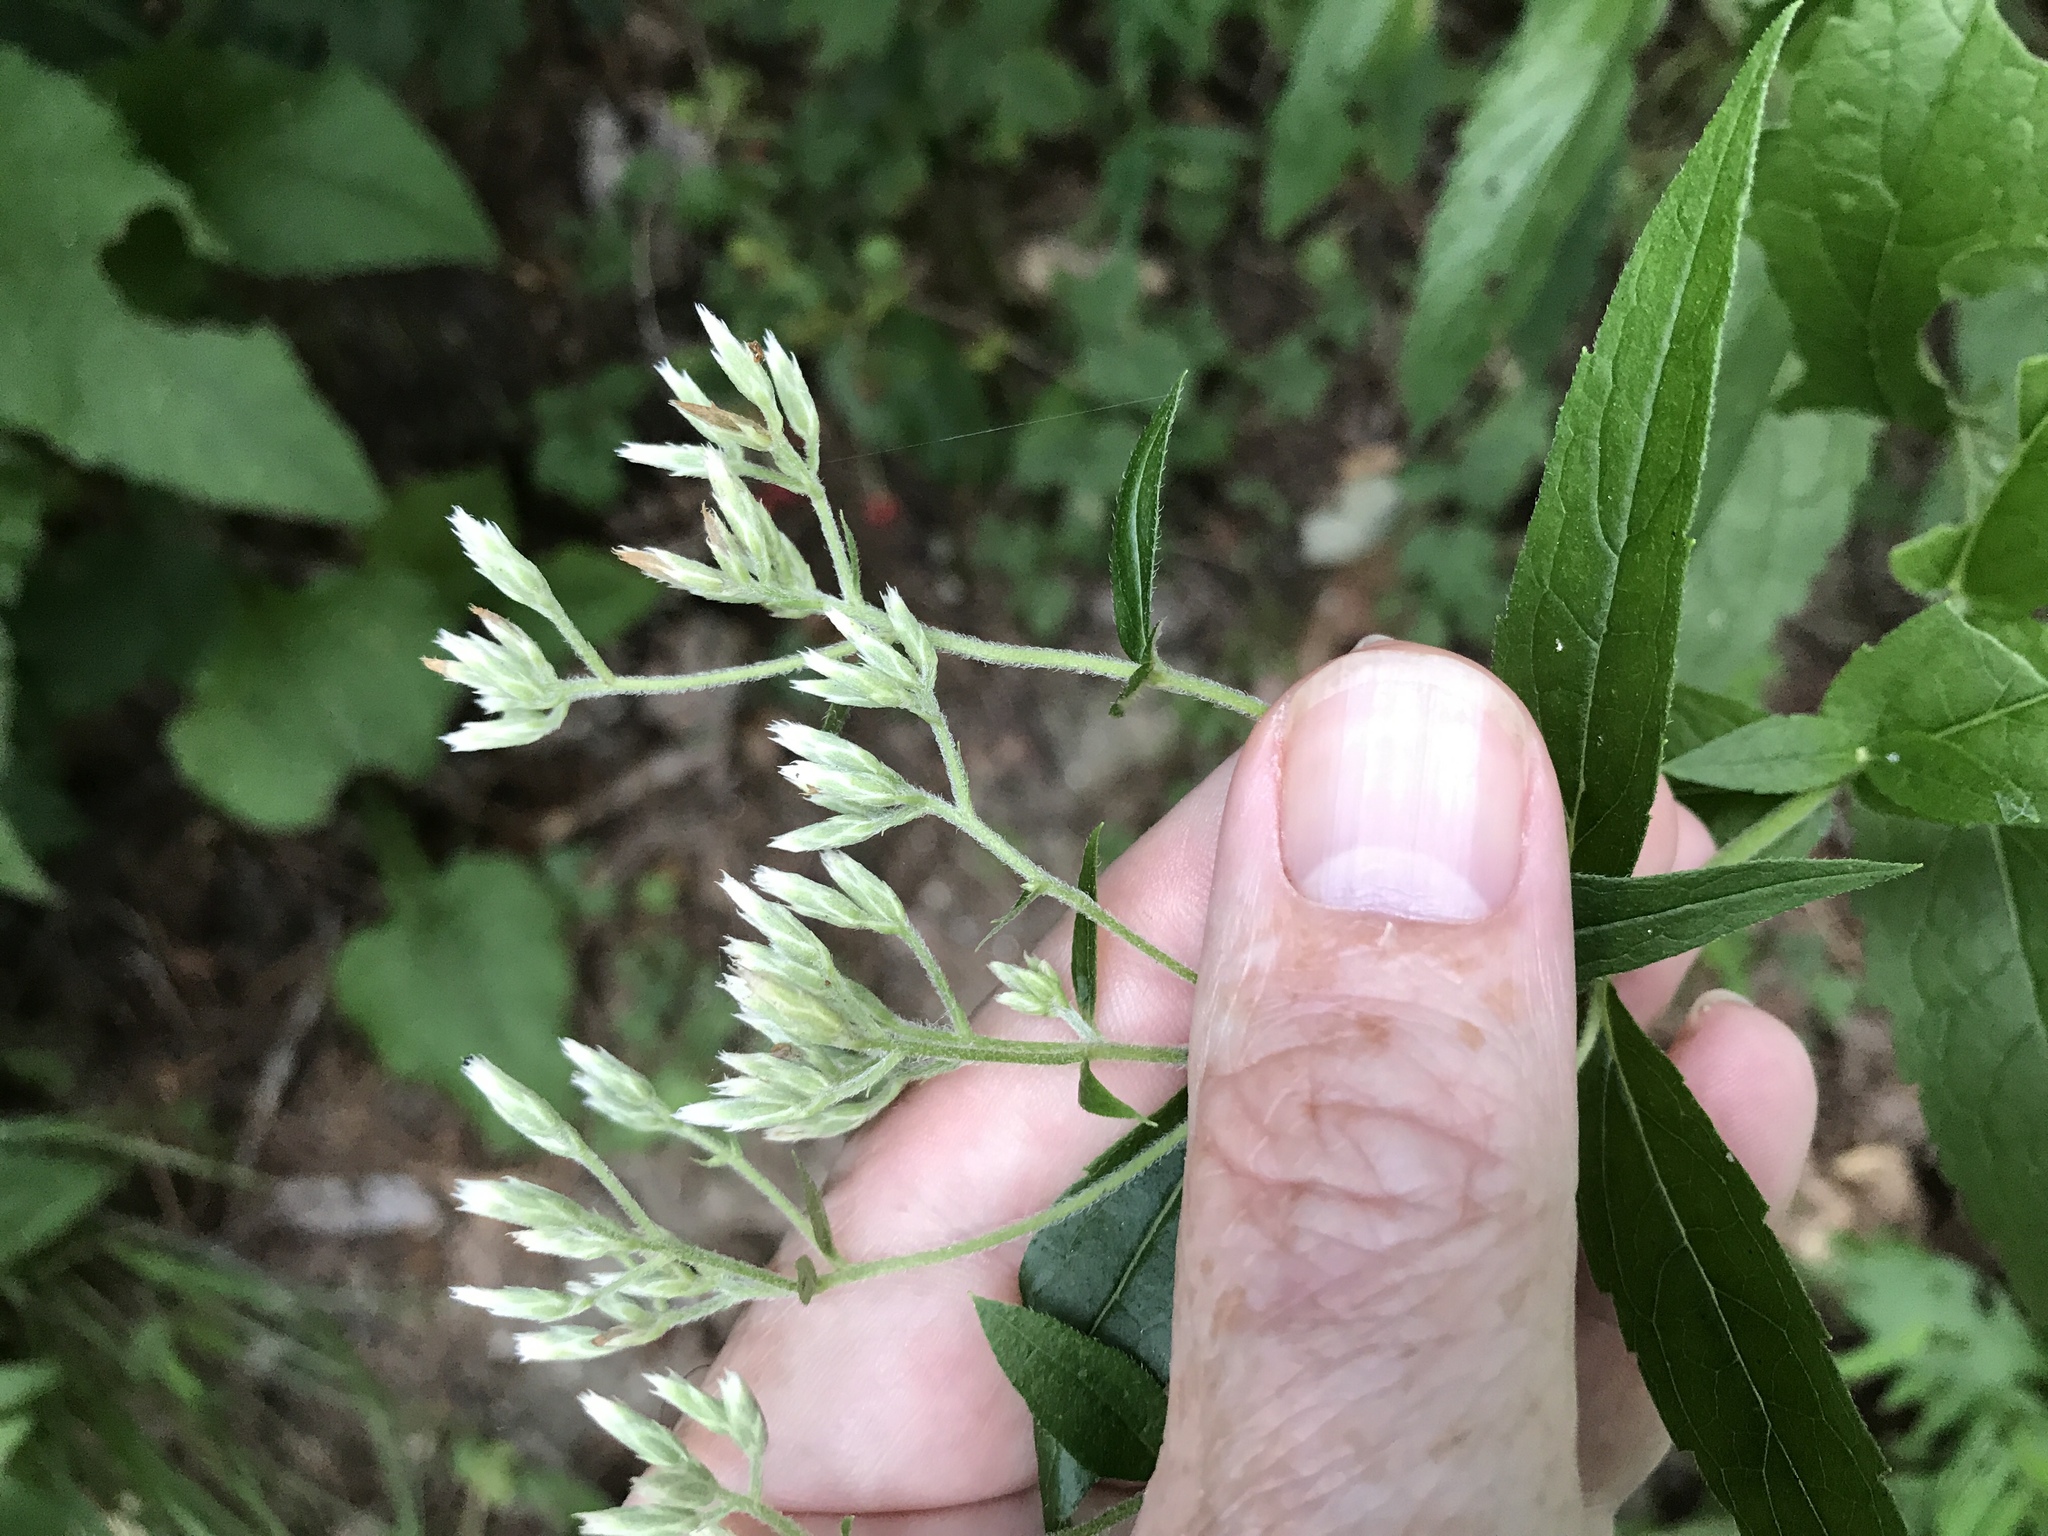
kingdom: Plantae
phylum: Tracheophyta
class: Magnoliopsida
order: Asterales
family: Asteraceae
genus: Eupatorium
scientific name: Eupatorium album
